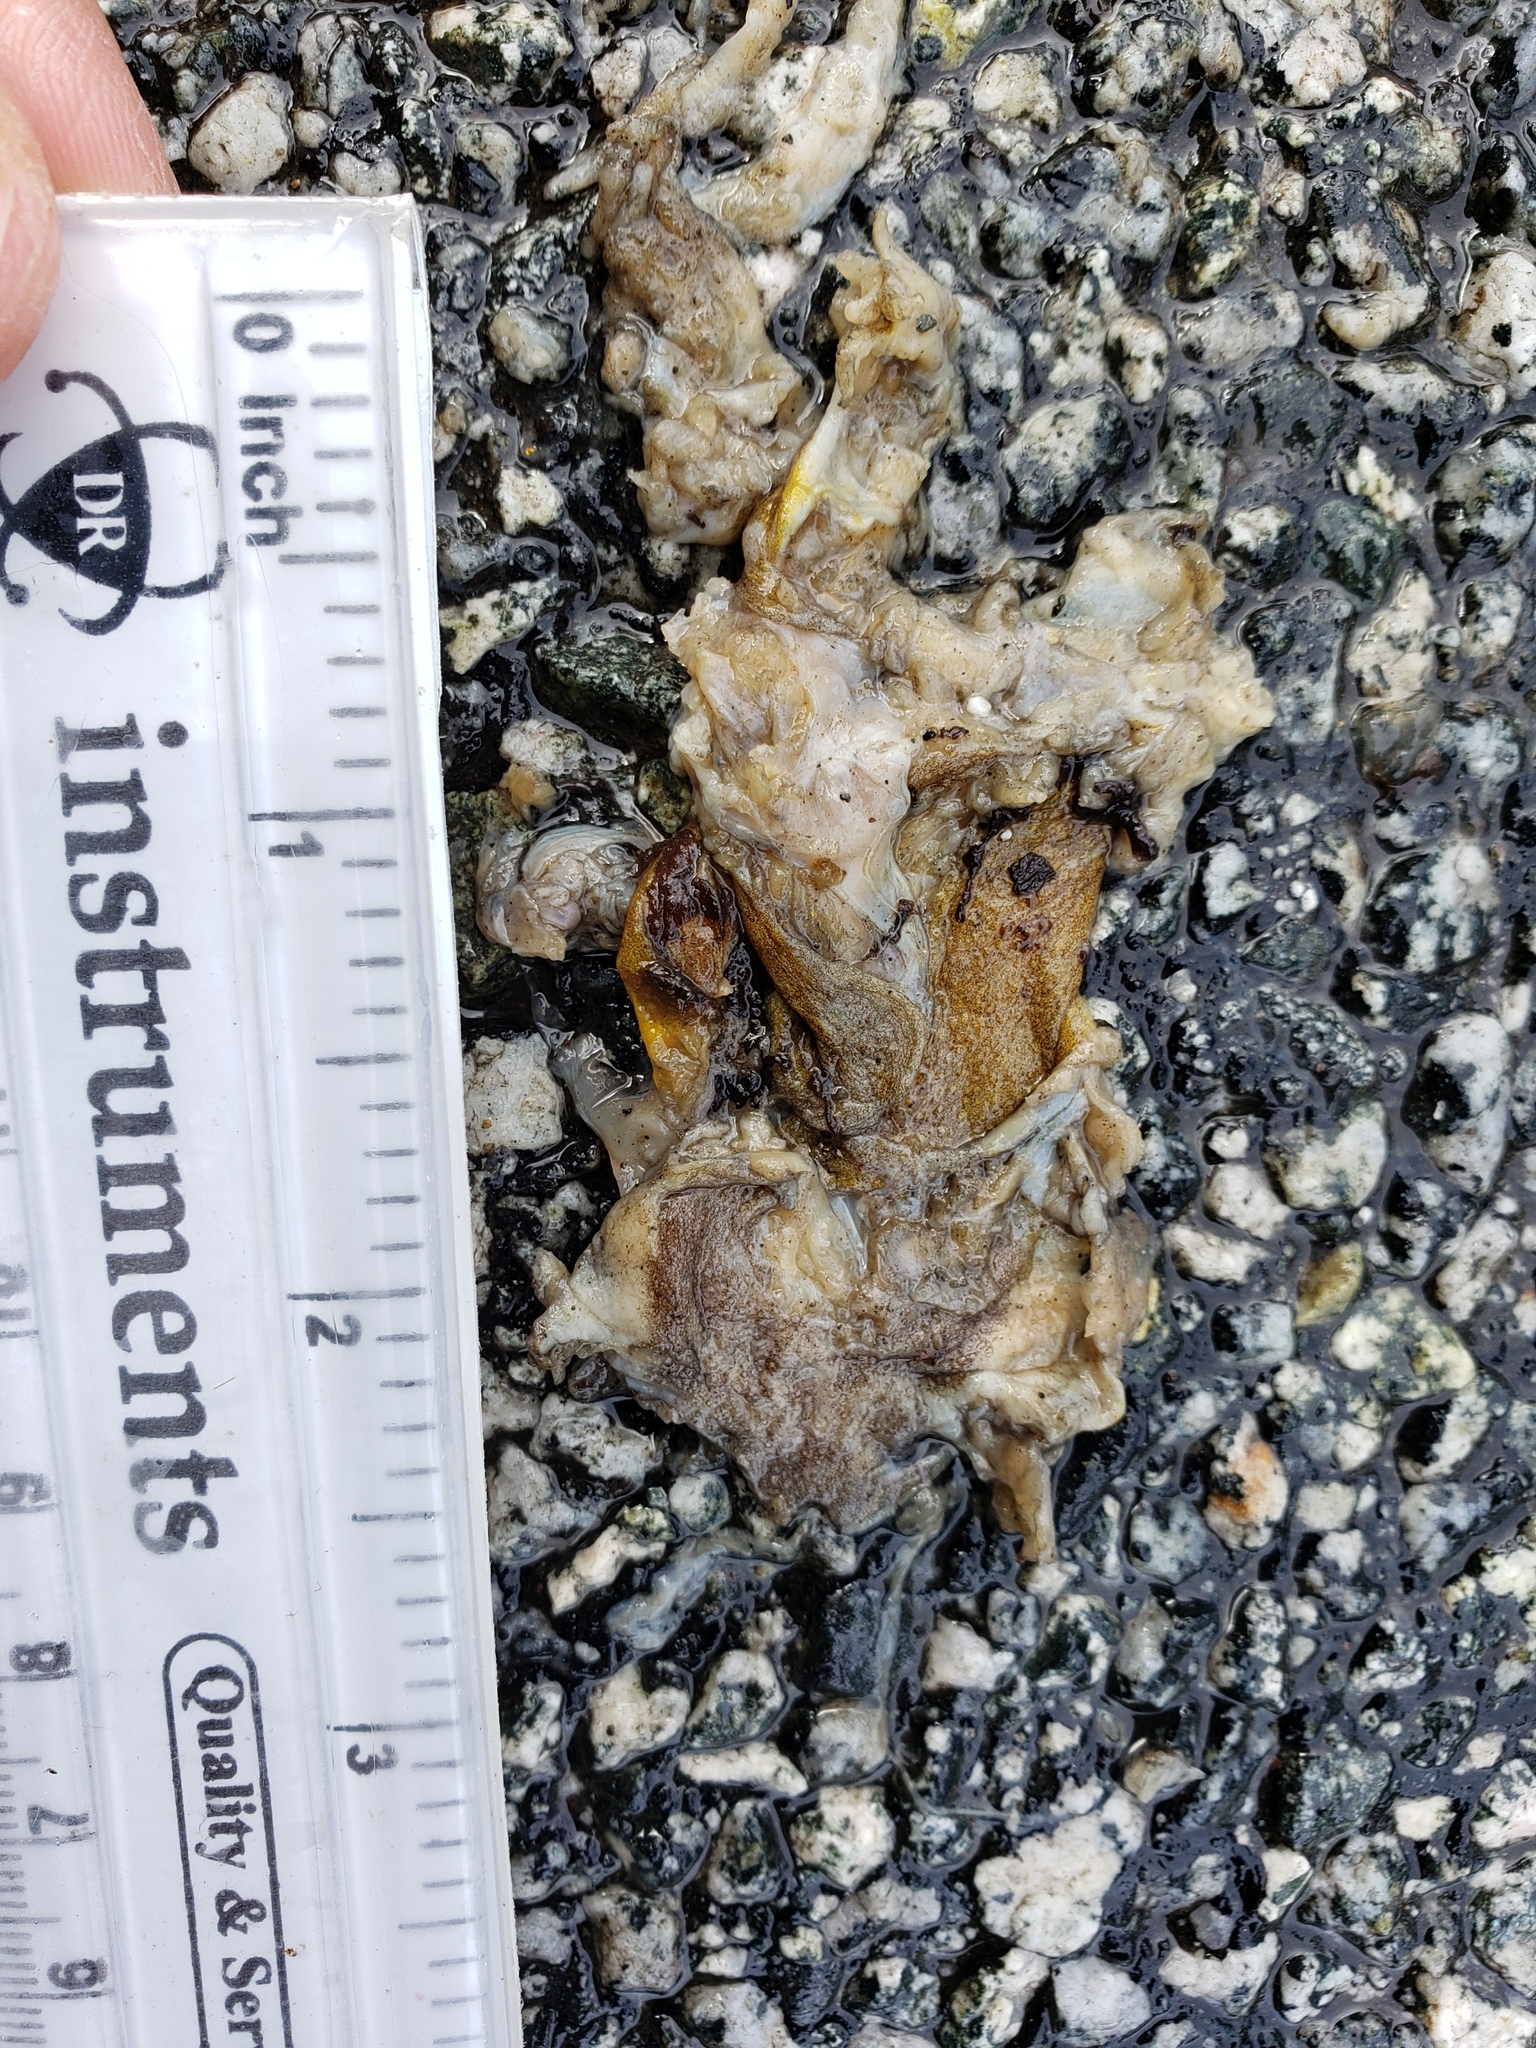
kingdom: Animalia
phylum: Chordata
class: Amphibia
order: Caudata
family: Salamandridae
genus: Taricha
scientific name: Taricha
